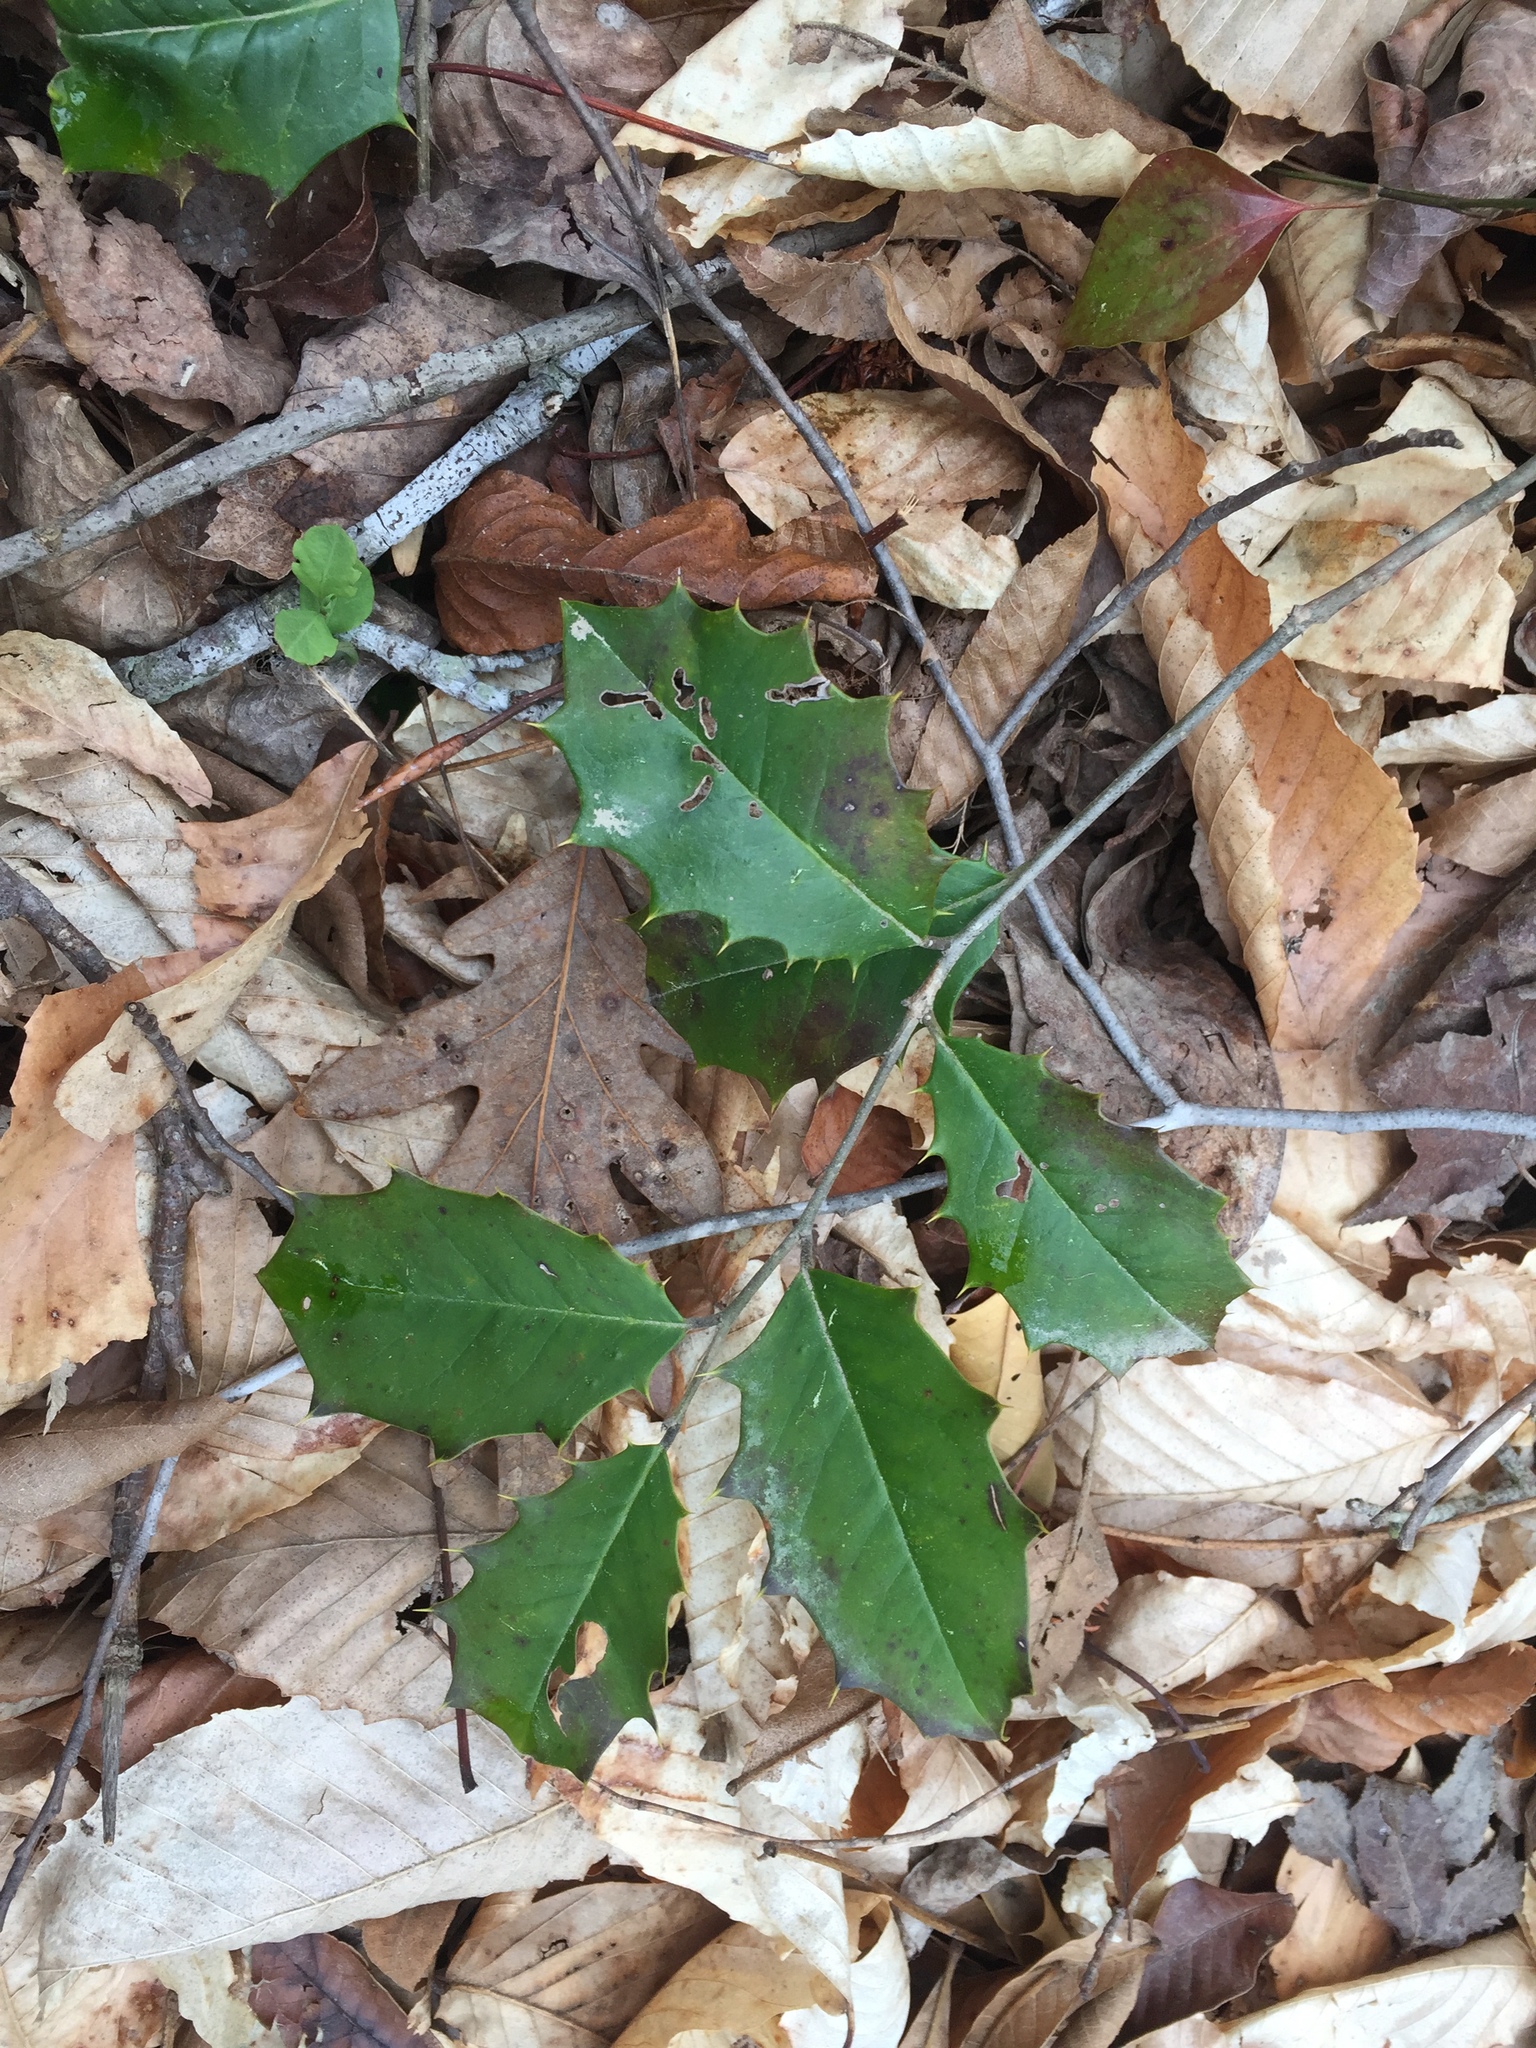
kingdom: Plantae
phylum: Tracheophyta
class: Magnoliopsida
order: Aquifoliales
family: Aquifoliaceae
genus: Ilex
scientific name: Ilex opaca
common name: American holly
